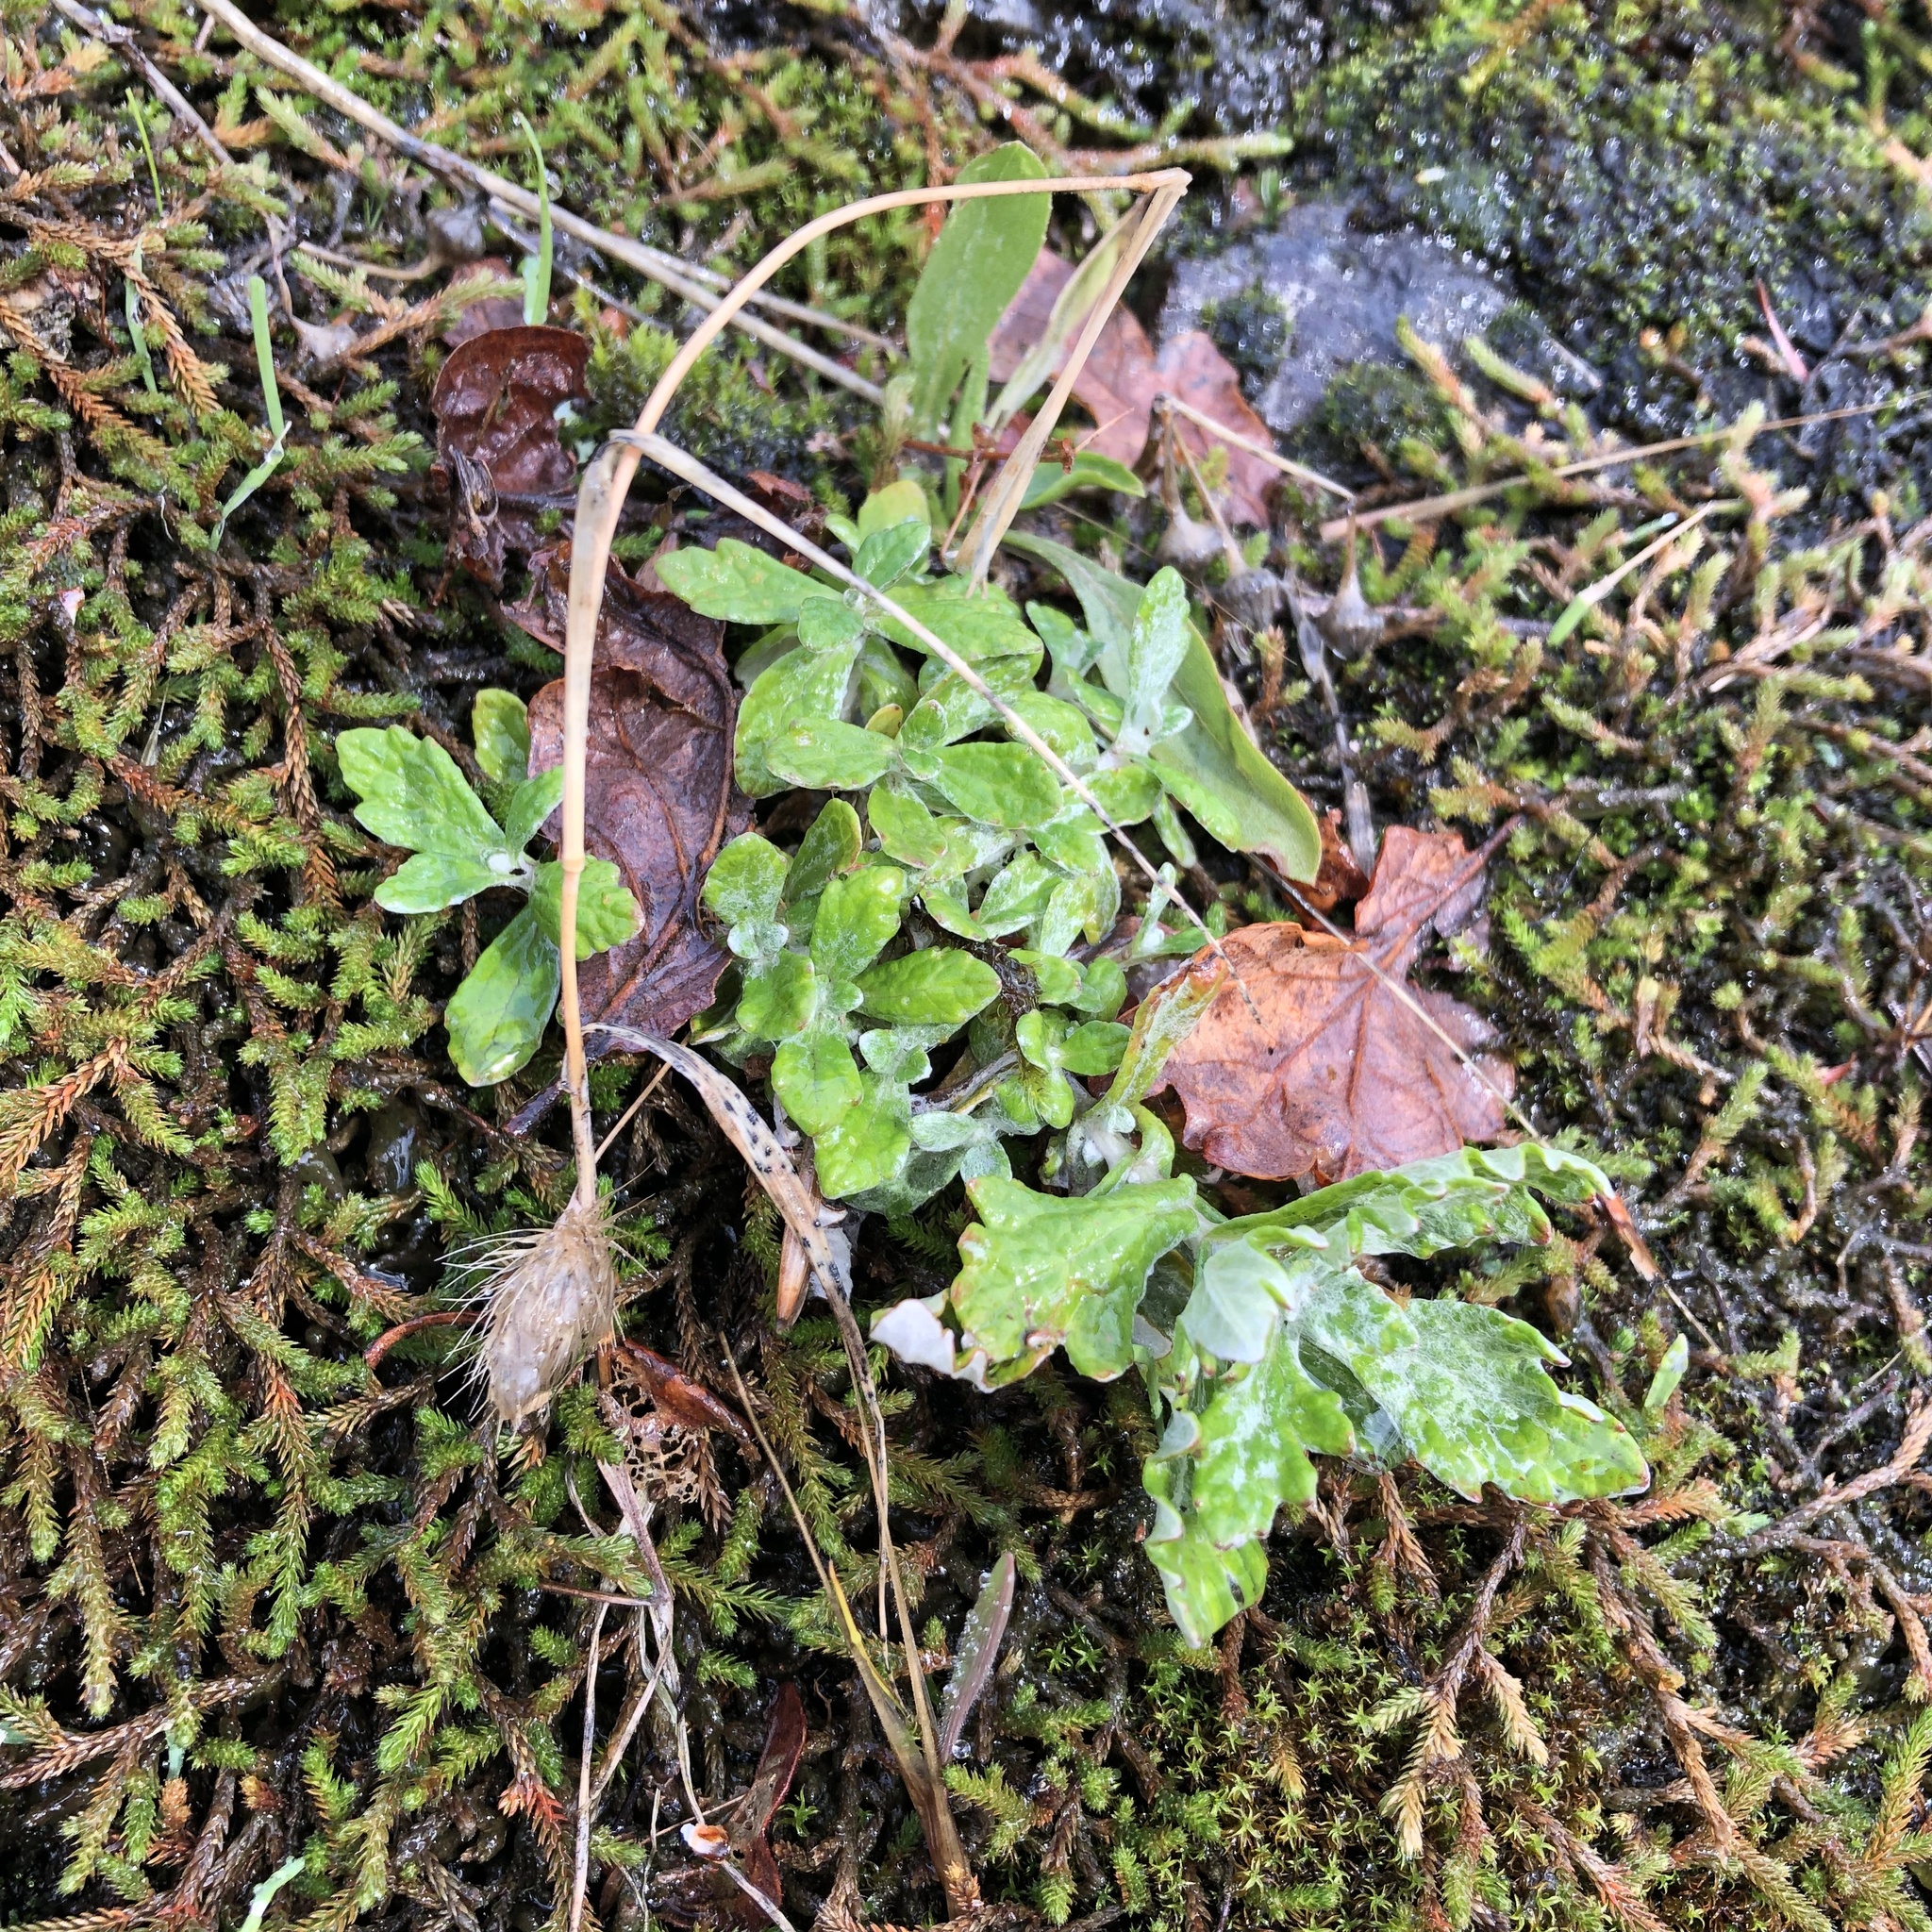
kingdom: Plantae
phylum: Tracheophyta
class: Magnoliopsida
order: Asterales
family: Asteraceae
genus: Eriophyllum
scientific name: Eriophyllum lanatum
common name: Common woolly-sunflower
